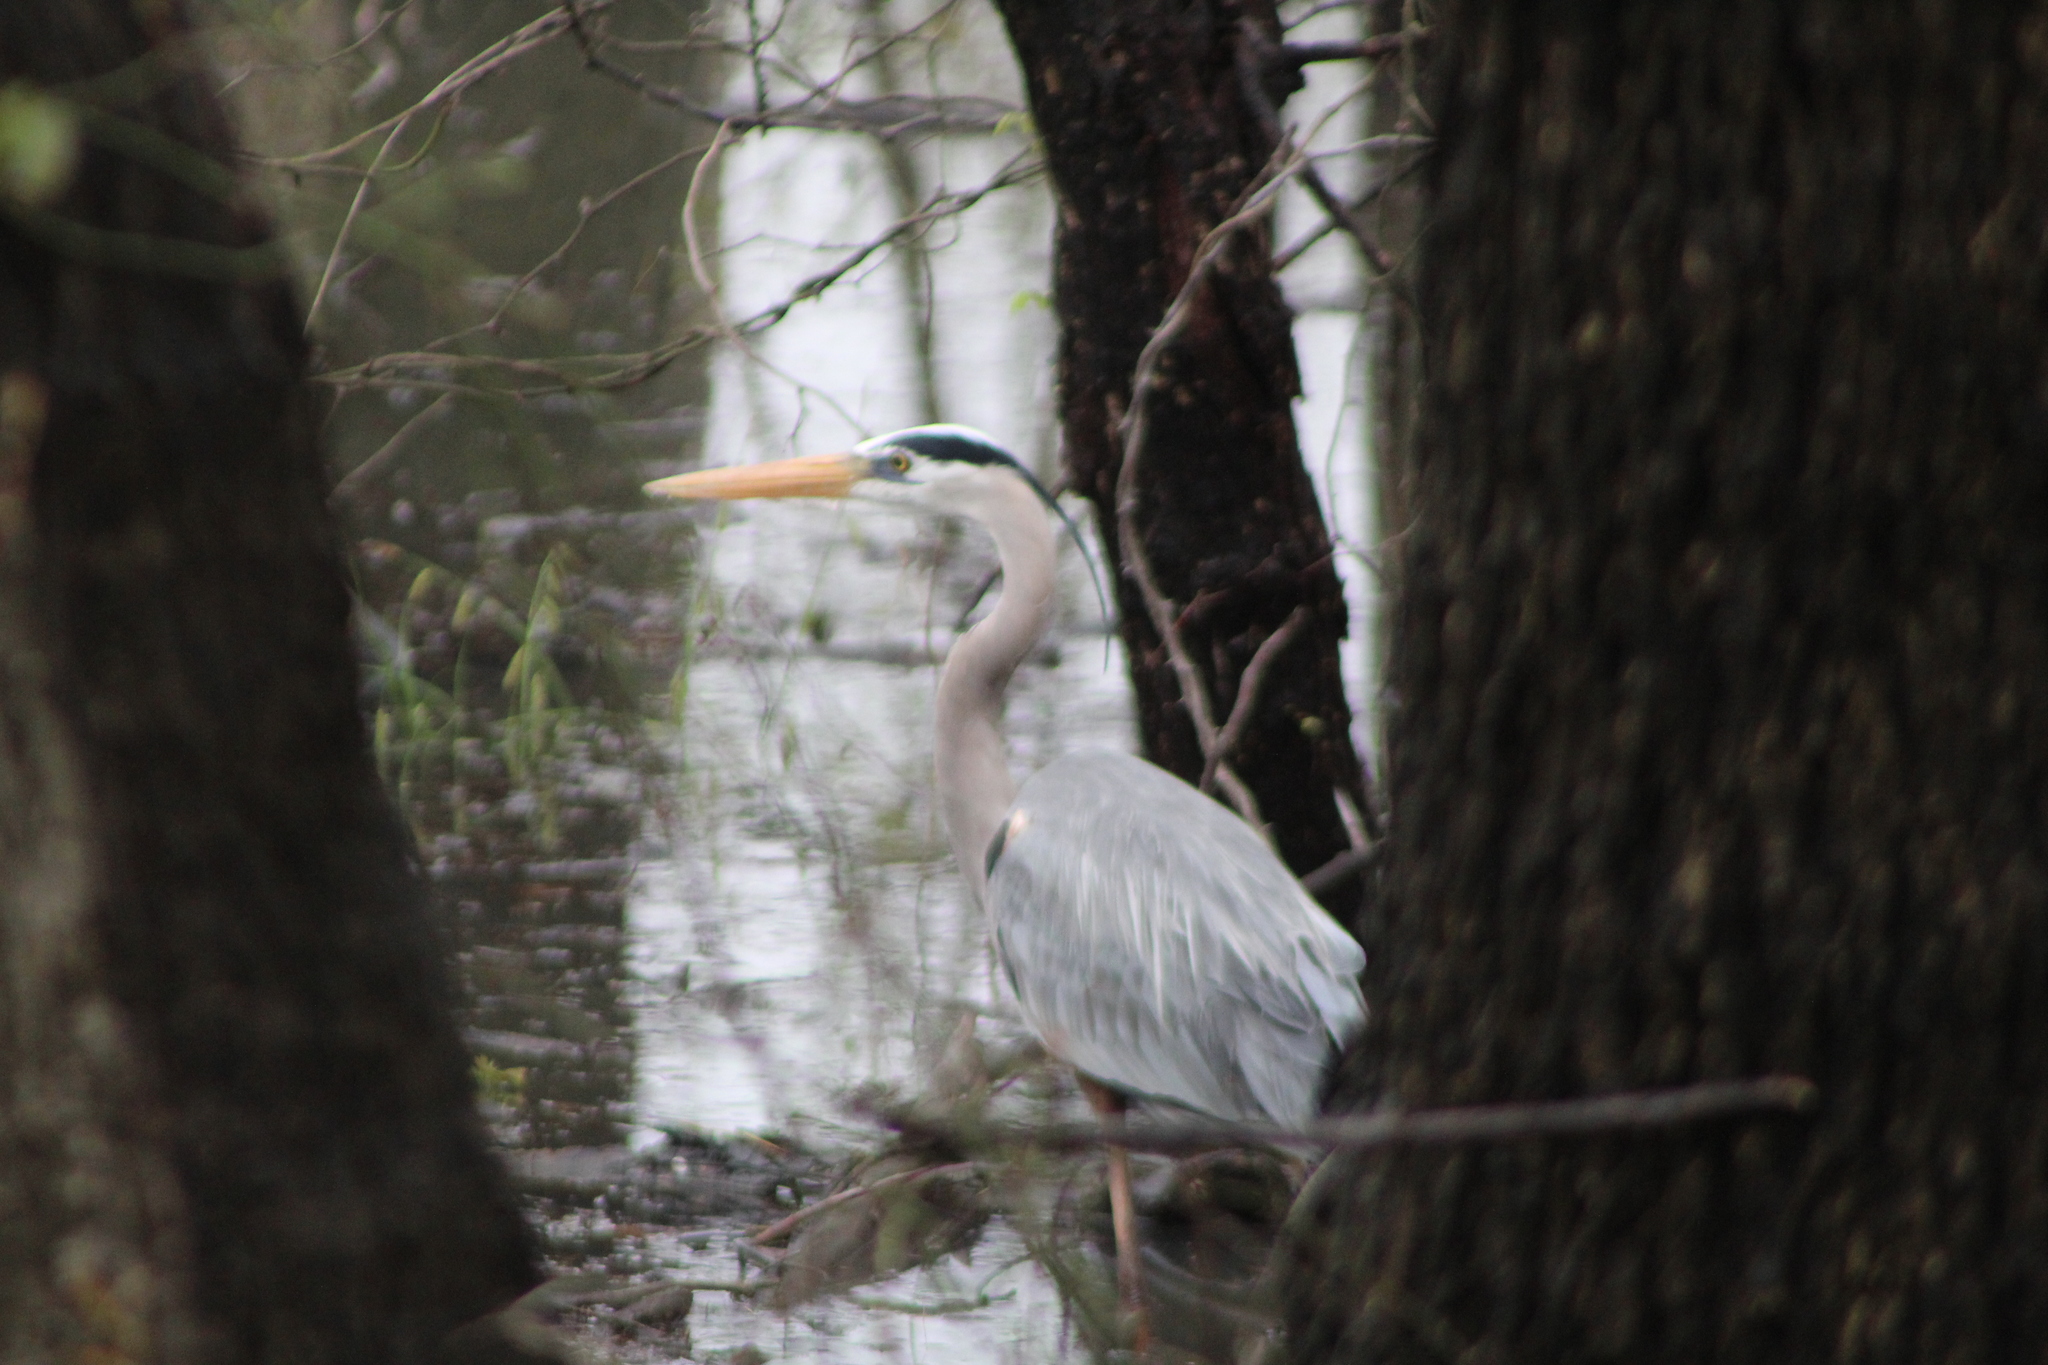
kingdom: Animalia
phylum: Chordata
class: Aves
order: Pelecaniformes
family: Ardeidae
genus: Ardea
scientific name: Ardea herodias
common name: Great blue heron
